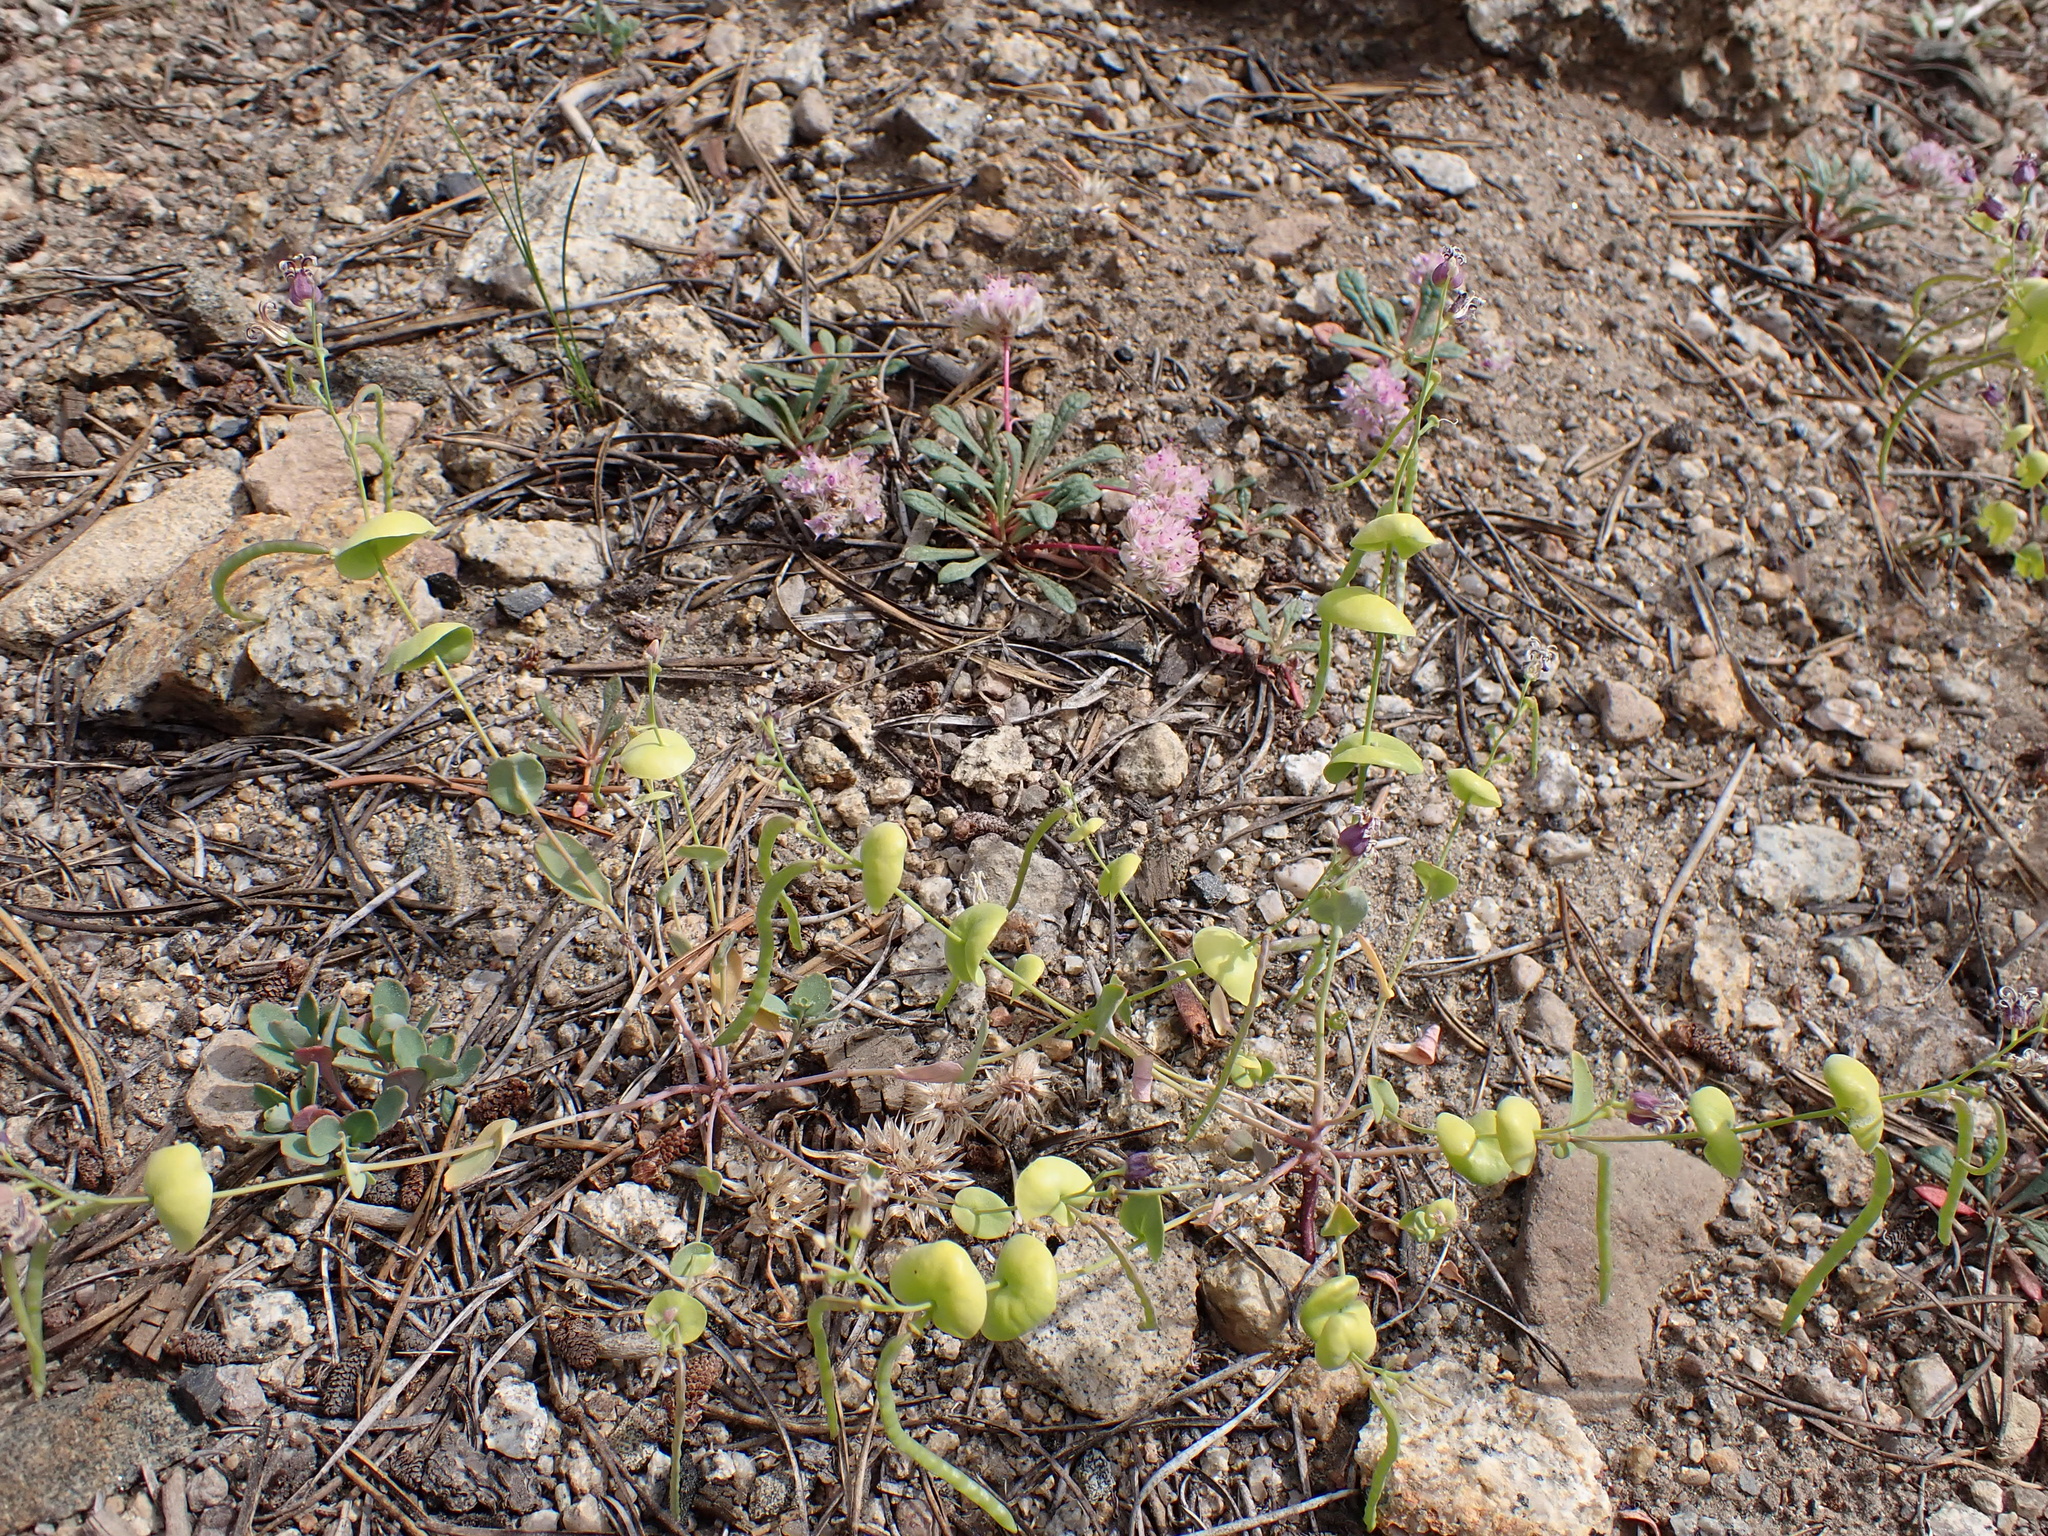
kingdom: Plantae
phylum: Tracheophyta
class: Magnoliopsida
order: Brassicales
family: Brassicaceae
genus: Streptanthus
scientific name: Streptanthus tortuosus
